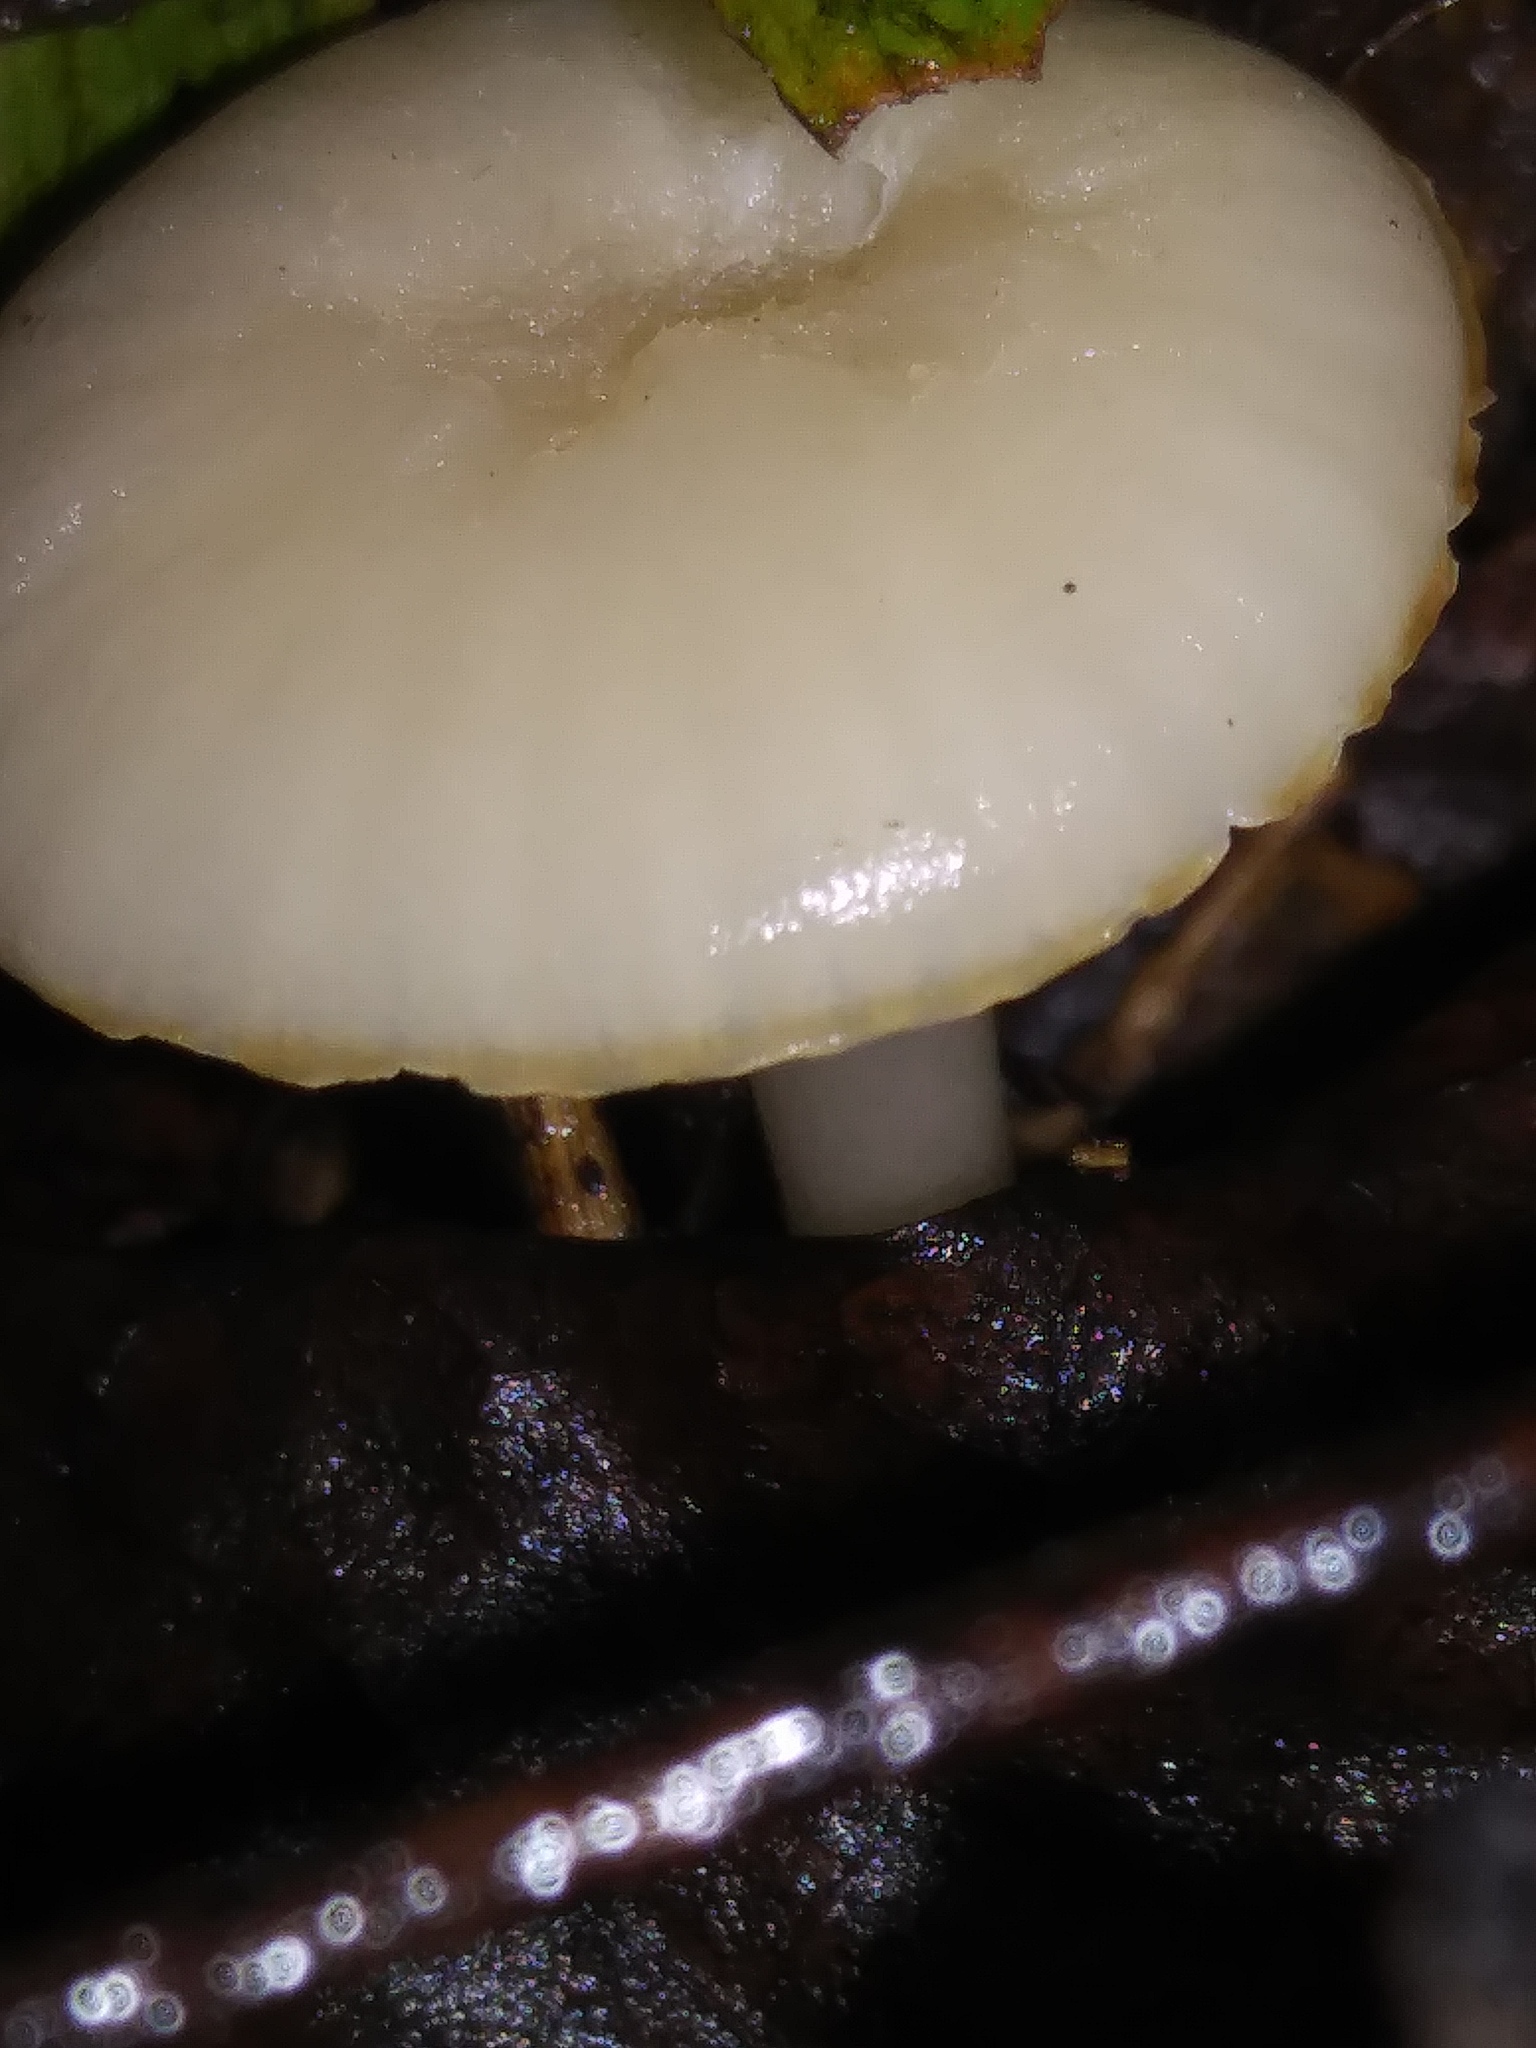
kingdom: Fungi
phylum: Basidiomycota
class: Agaricomycetes
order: Agaricales
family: Hygrophoraceae
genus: Cuphophyllus
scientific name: Cuphophyllus virgineus
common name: Snowy waxcap
